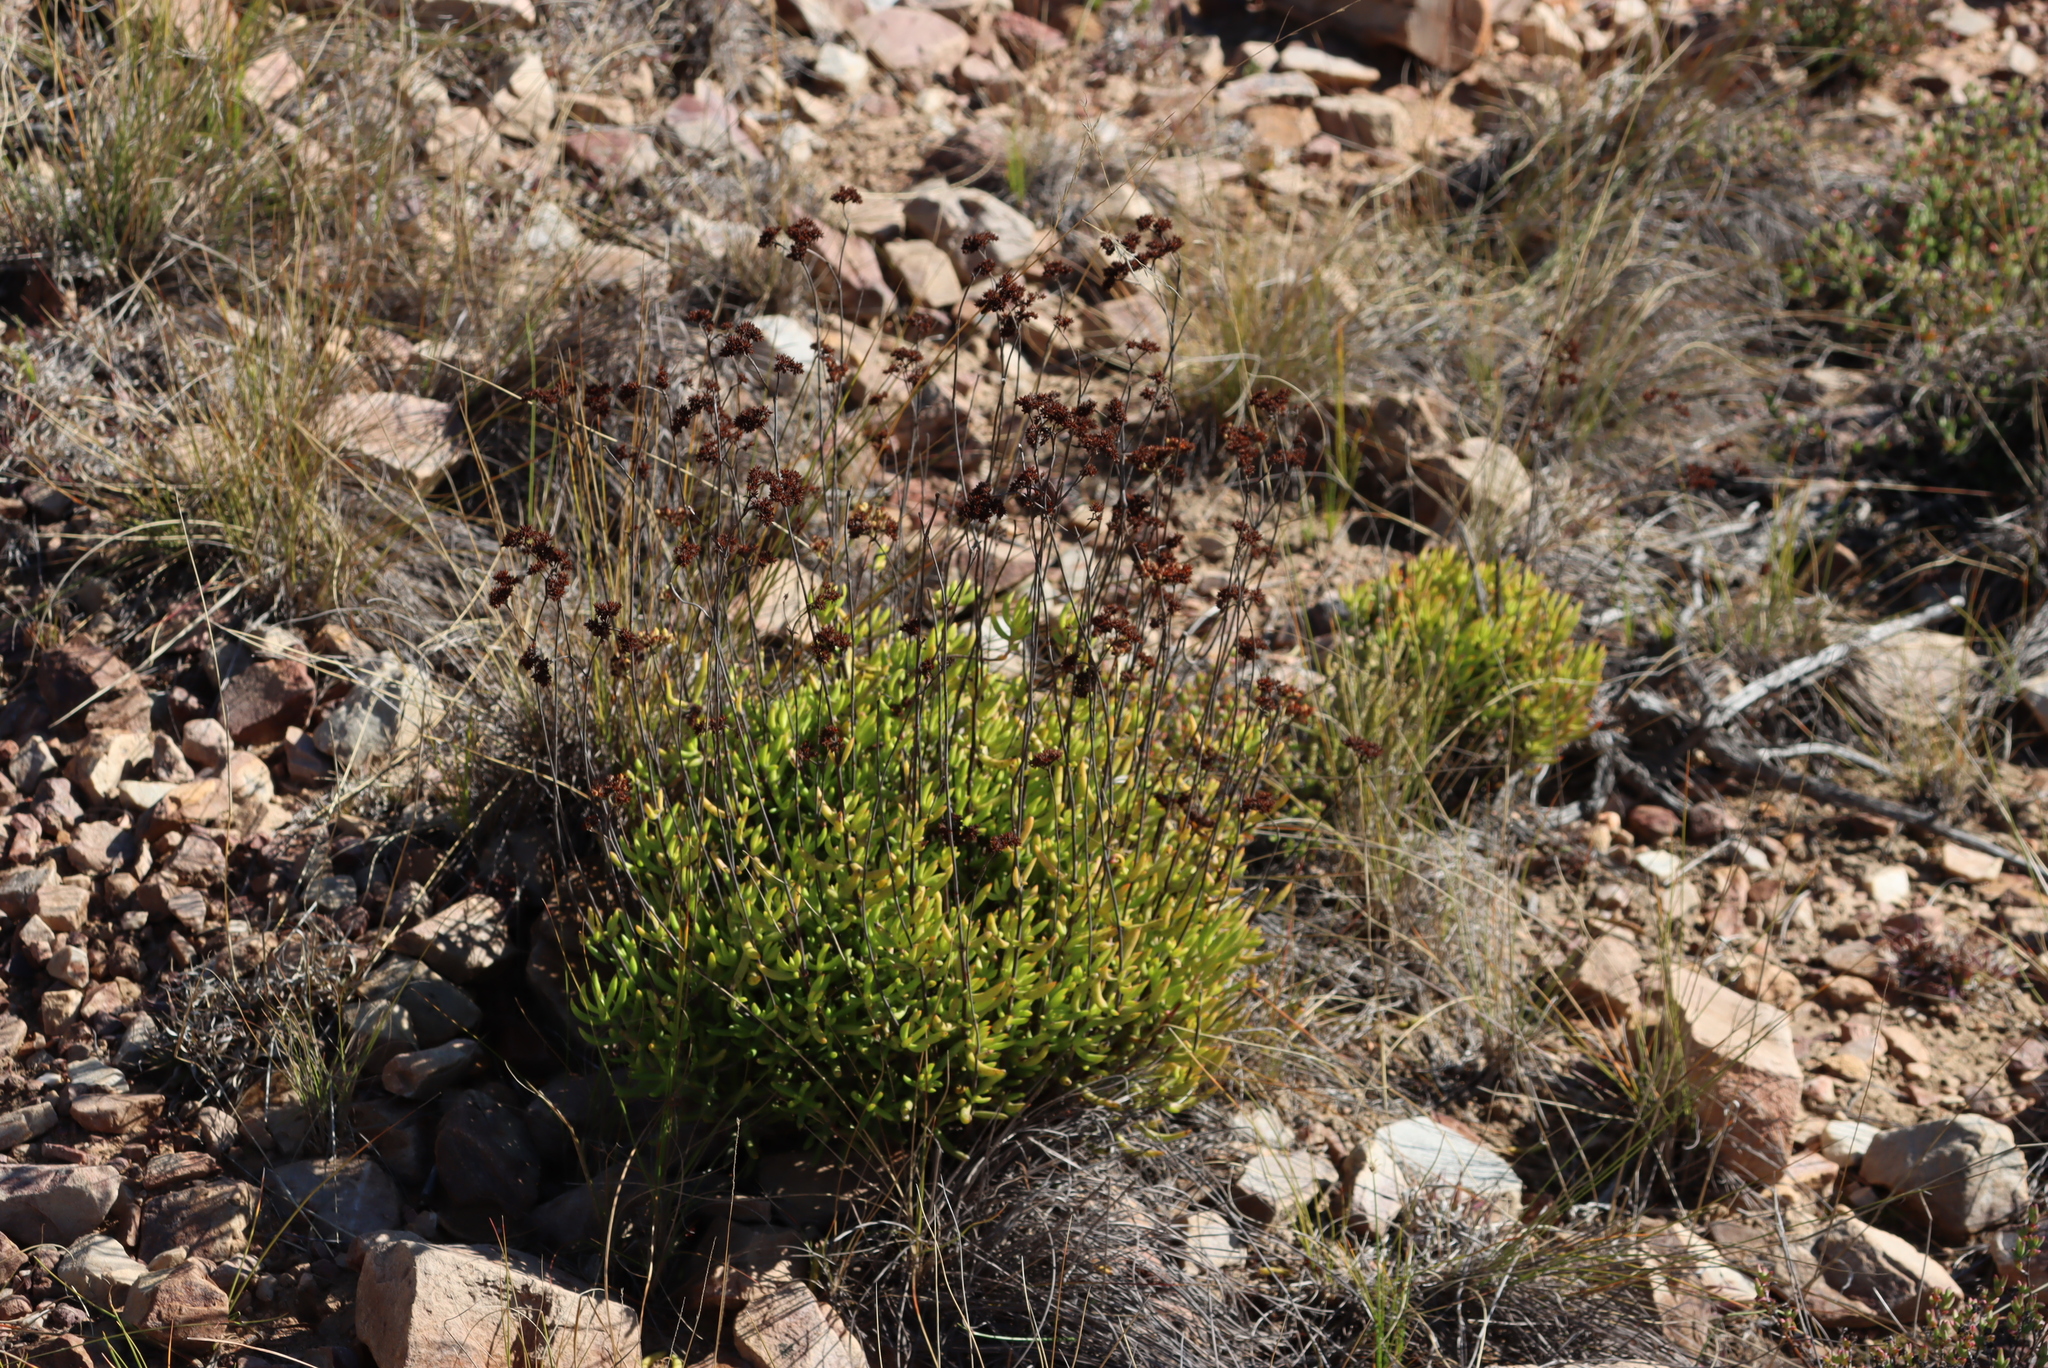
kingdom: Plantae
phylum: Tracheophyta
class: Magnoliopsida
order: Saxifragales
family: Crassulaceae
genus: Crassula
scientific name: Crassula mollis
